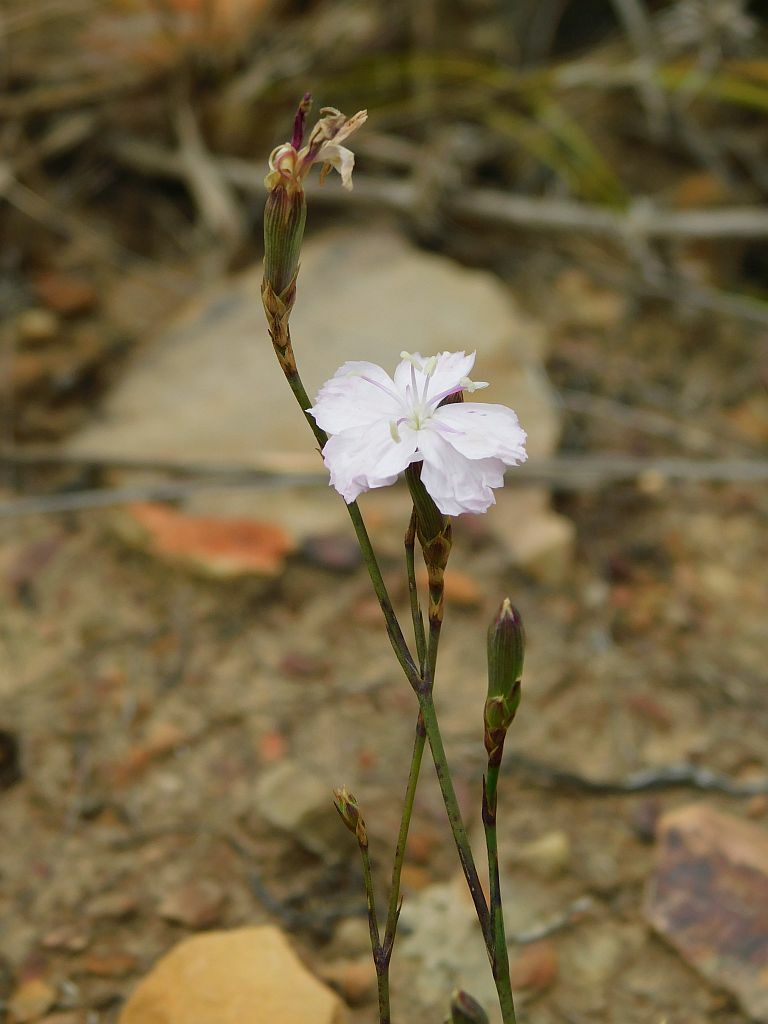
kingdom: Plantae
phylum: Tracheophyta
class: Magnoliopsida
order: Caryophyllales
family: Caryophyllaceae
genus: Dianthus
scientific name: Dianthus albens
